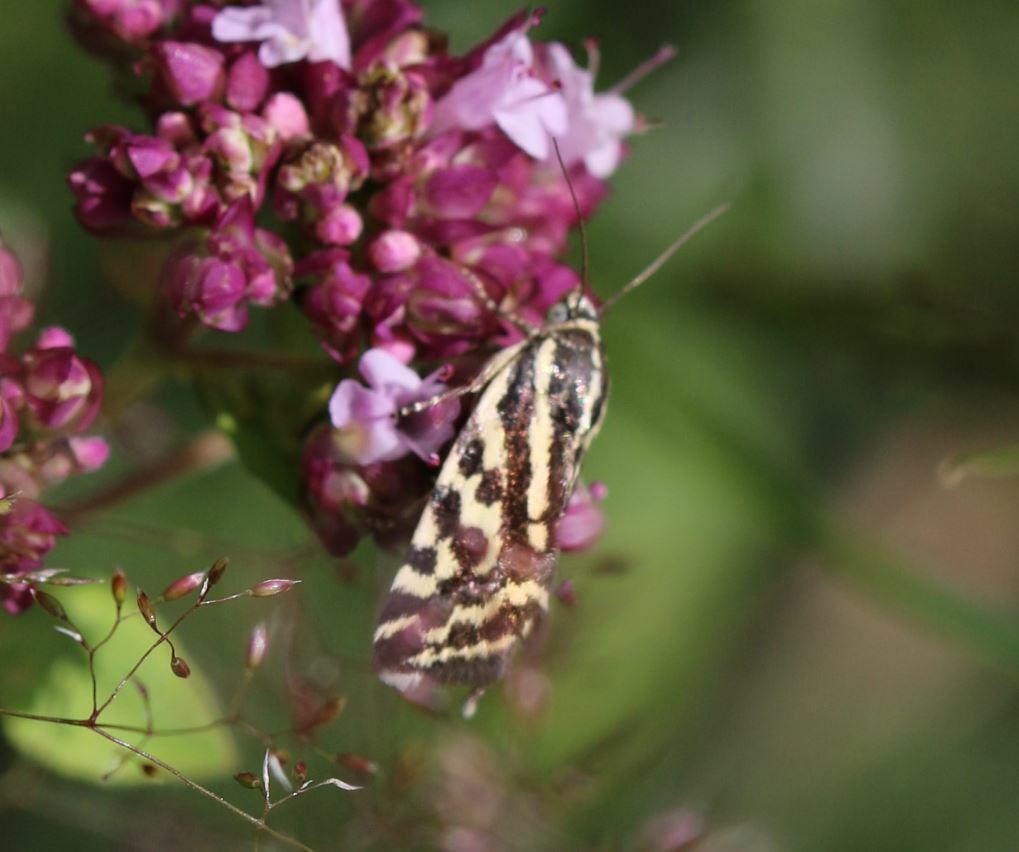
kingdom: Animalia
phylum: Arthropoda
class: Insecta
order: Lepidoptera
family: Noctuidae
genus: Acontia
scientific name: Acontia trabealis
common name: Spotted sulphur
